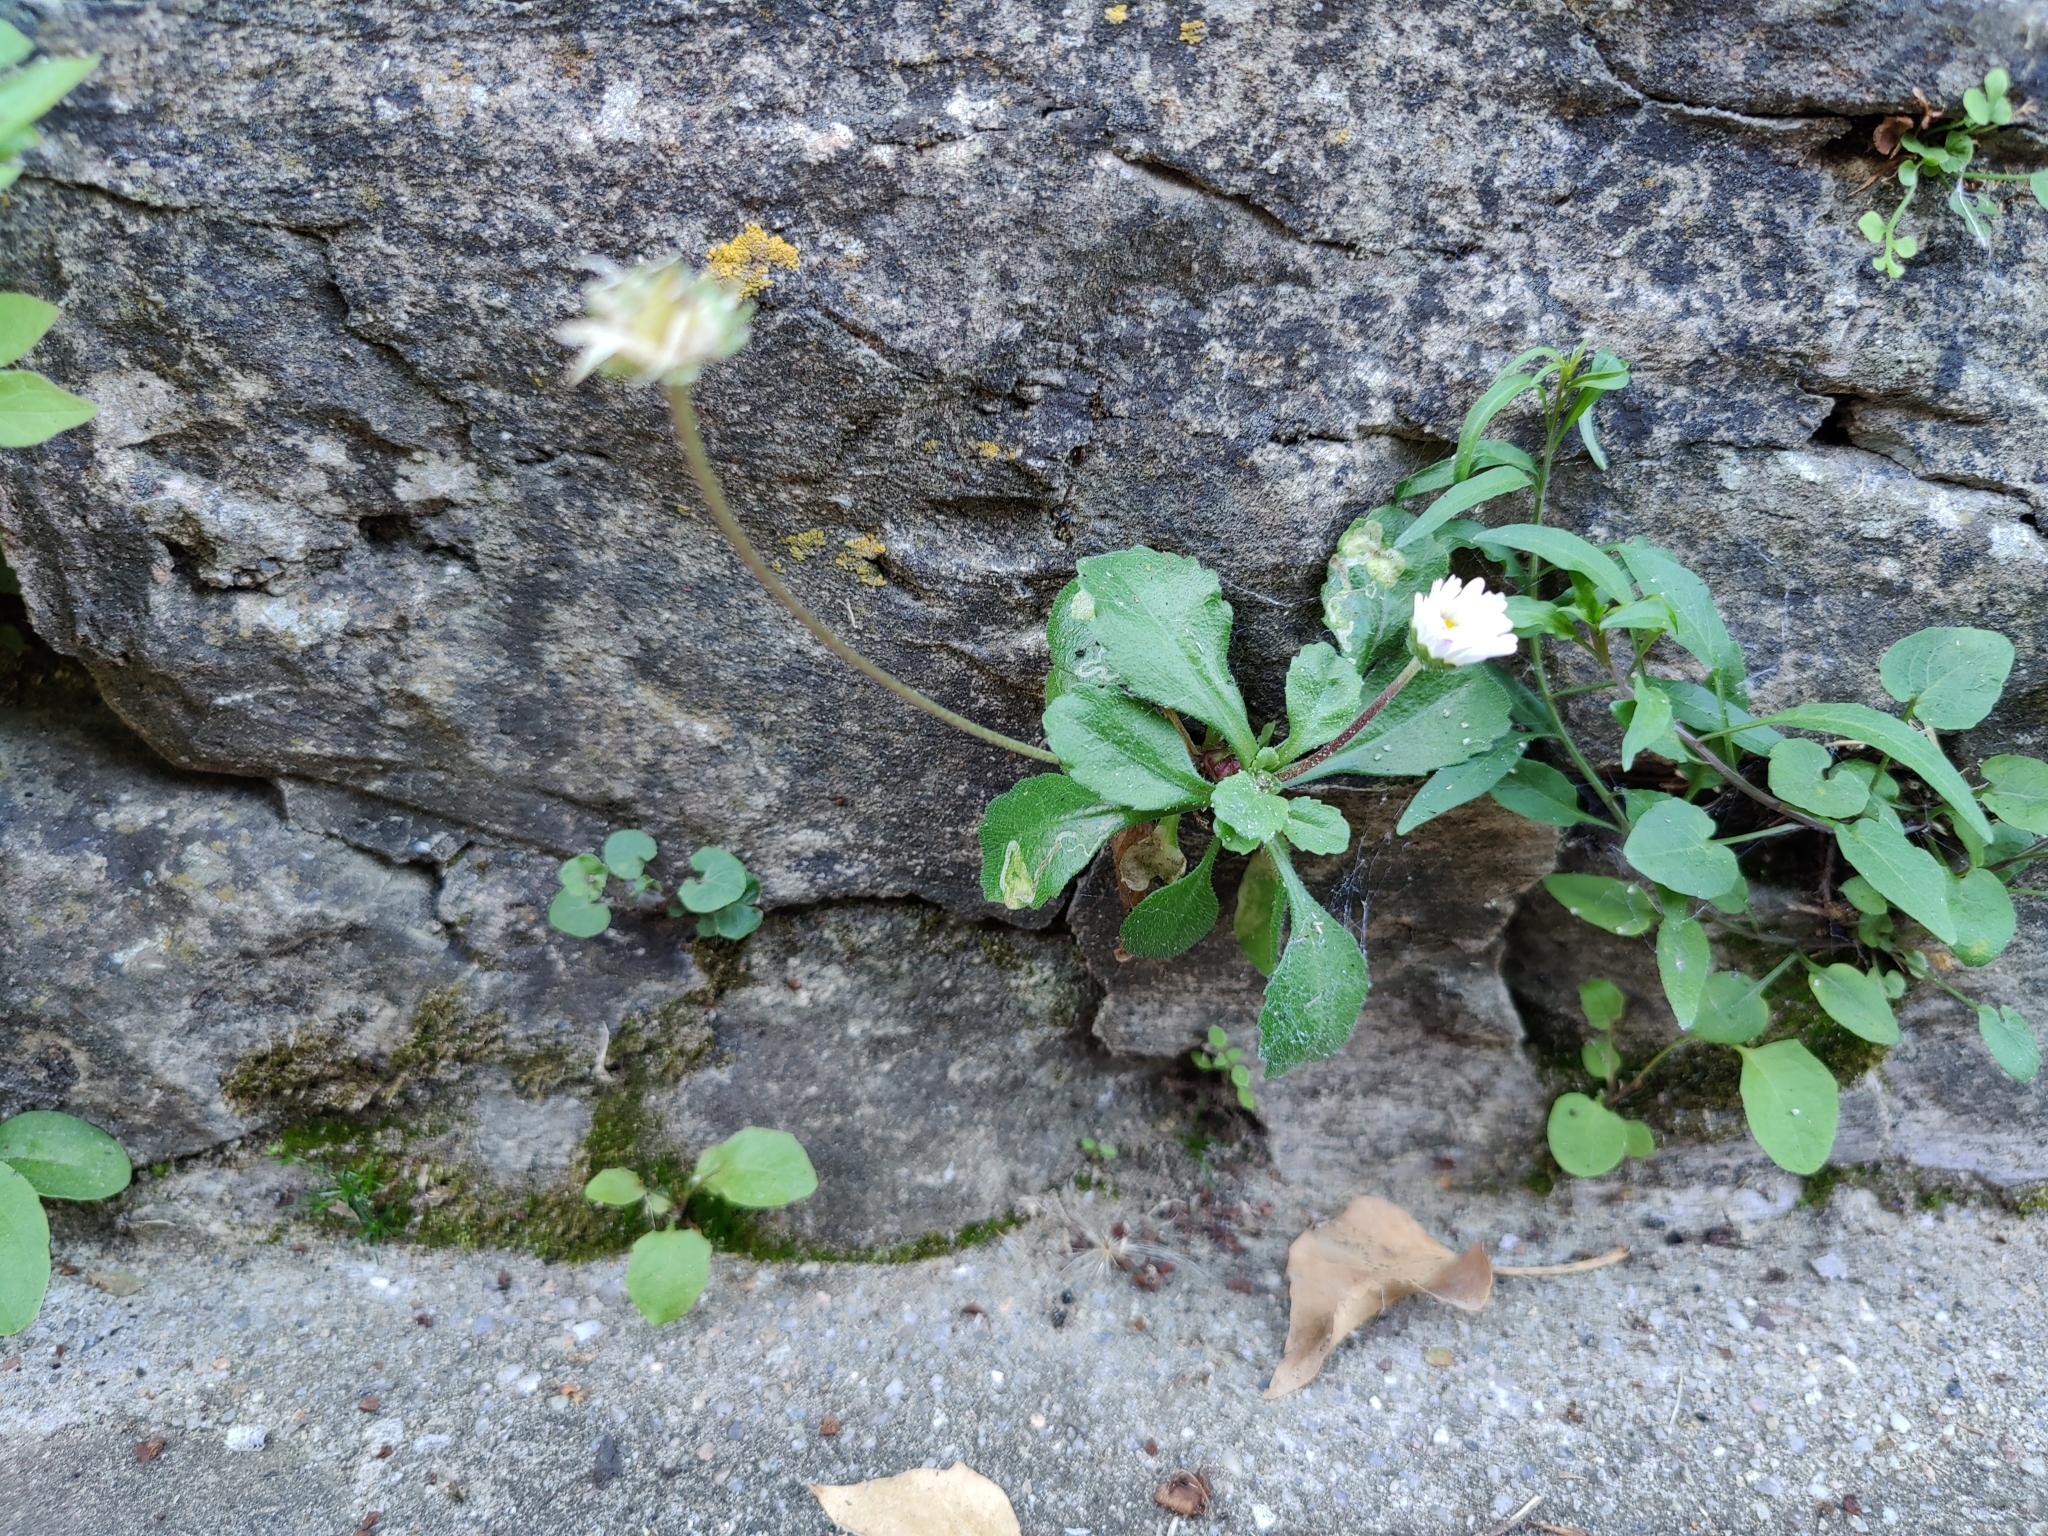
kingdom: Plantae
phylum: Tracheophyta
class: Magnoliopsida
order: Asterales
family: Asteraceae
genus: Bellis
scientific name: Bellis perennis
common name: Lawndaisy
